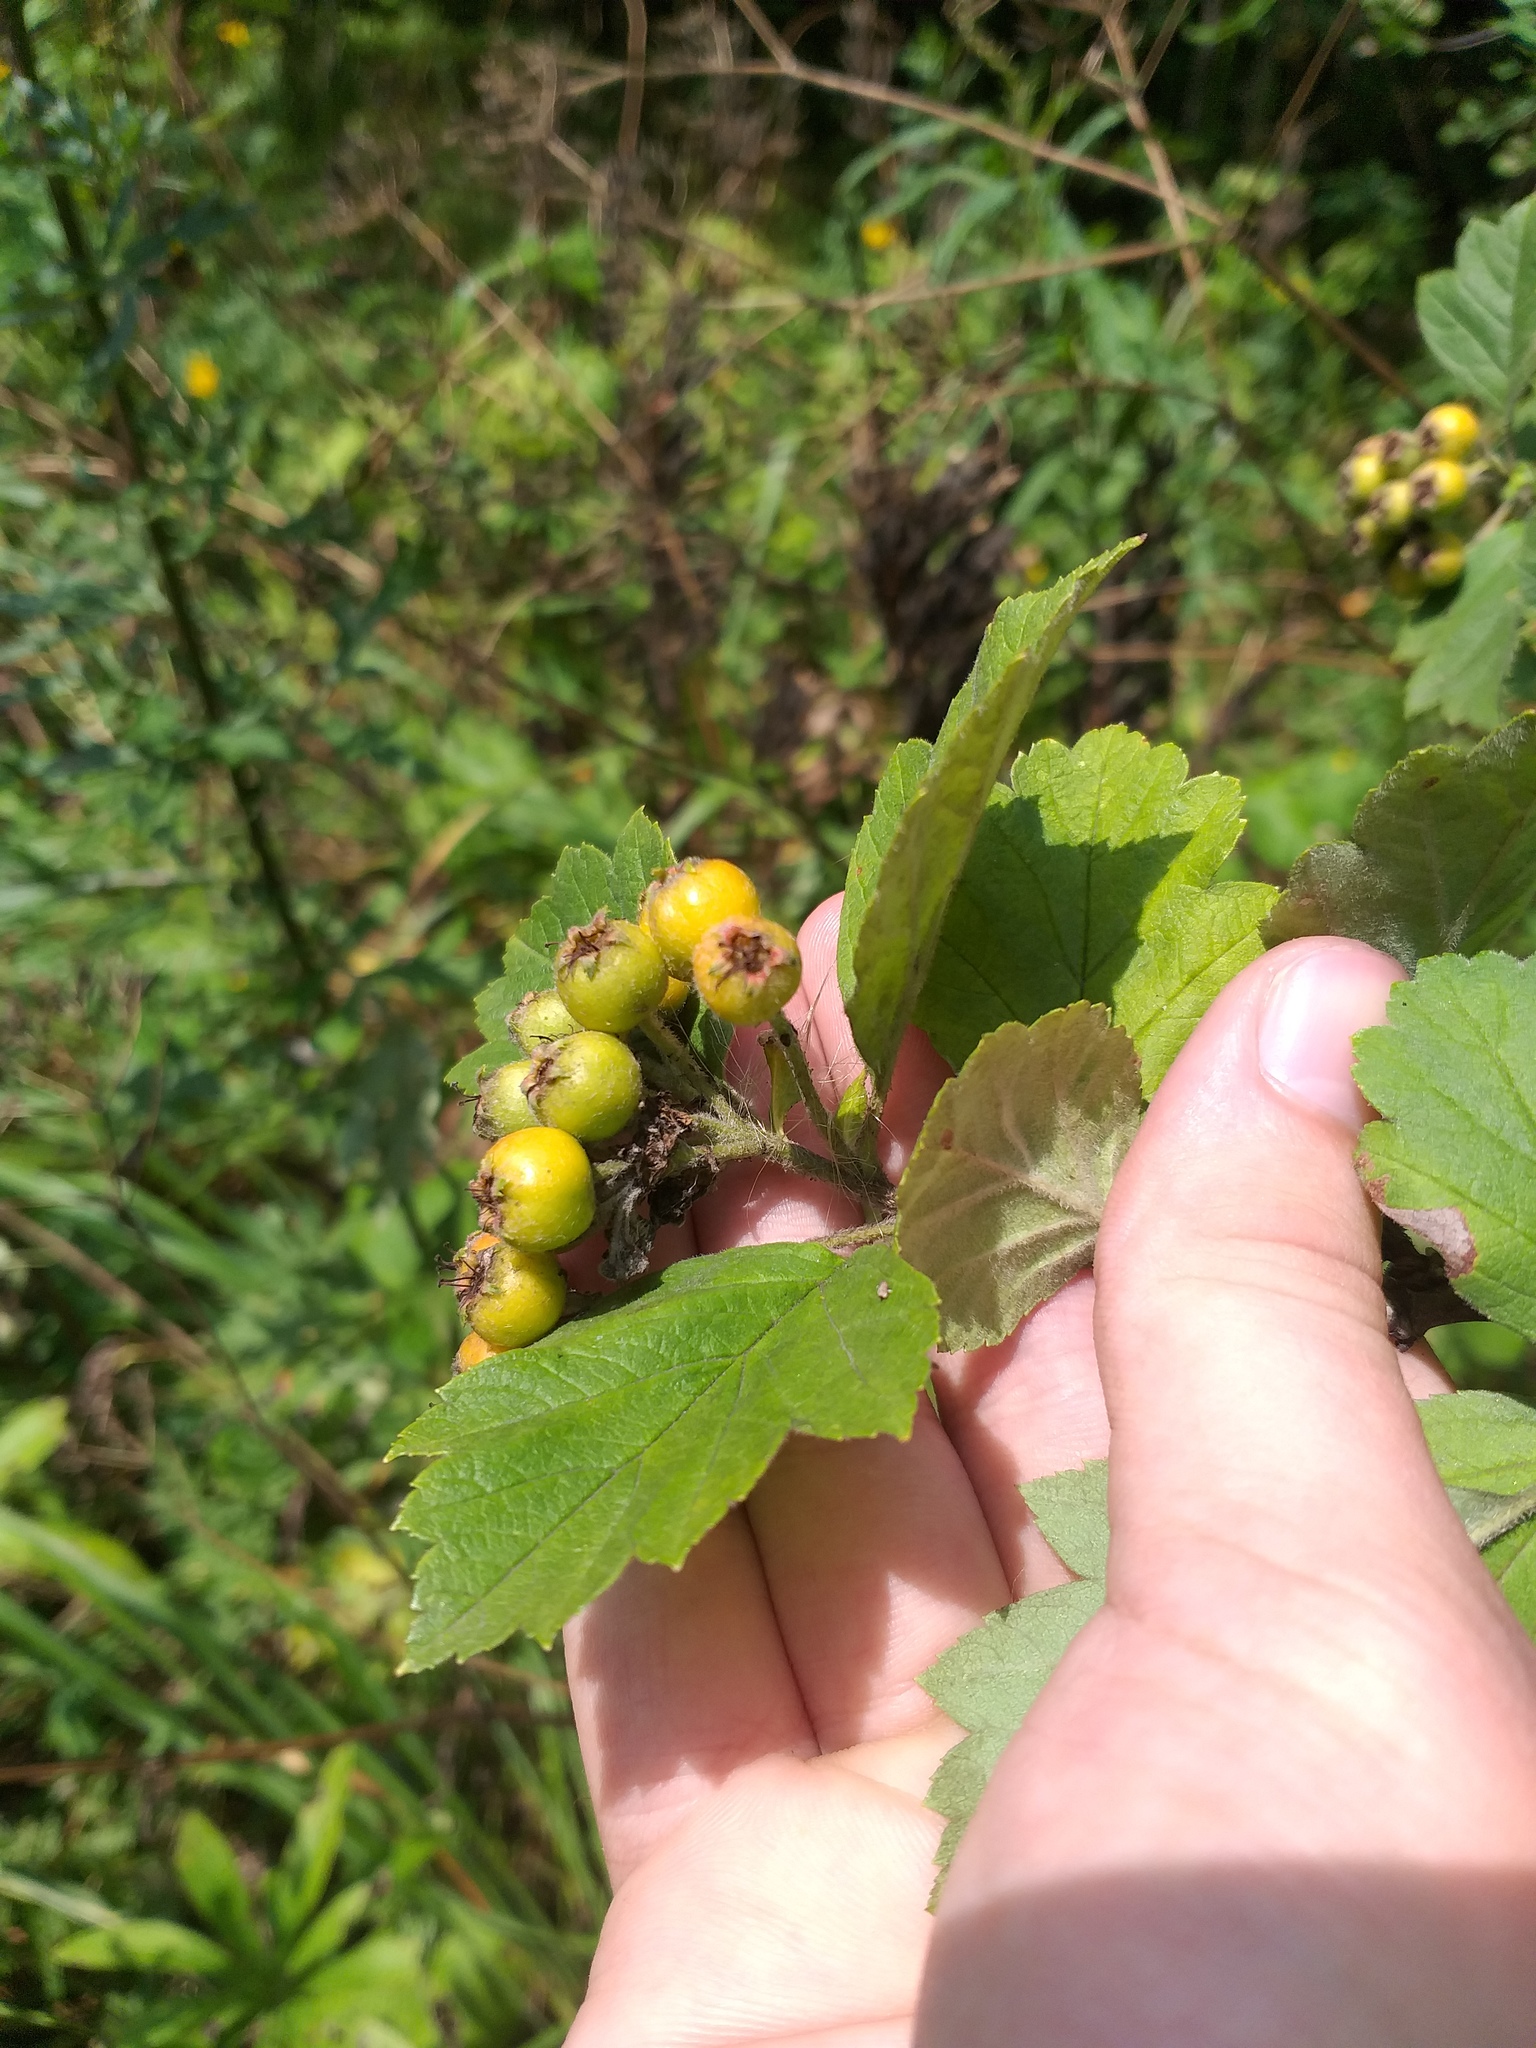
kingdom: Plantae
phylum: Tracheophyta
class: Magnoliopsida
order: Rosales
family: Rosaceae
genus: Crataegus
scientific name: Crataegus maximowiczii
